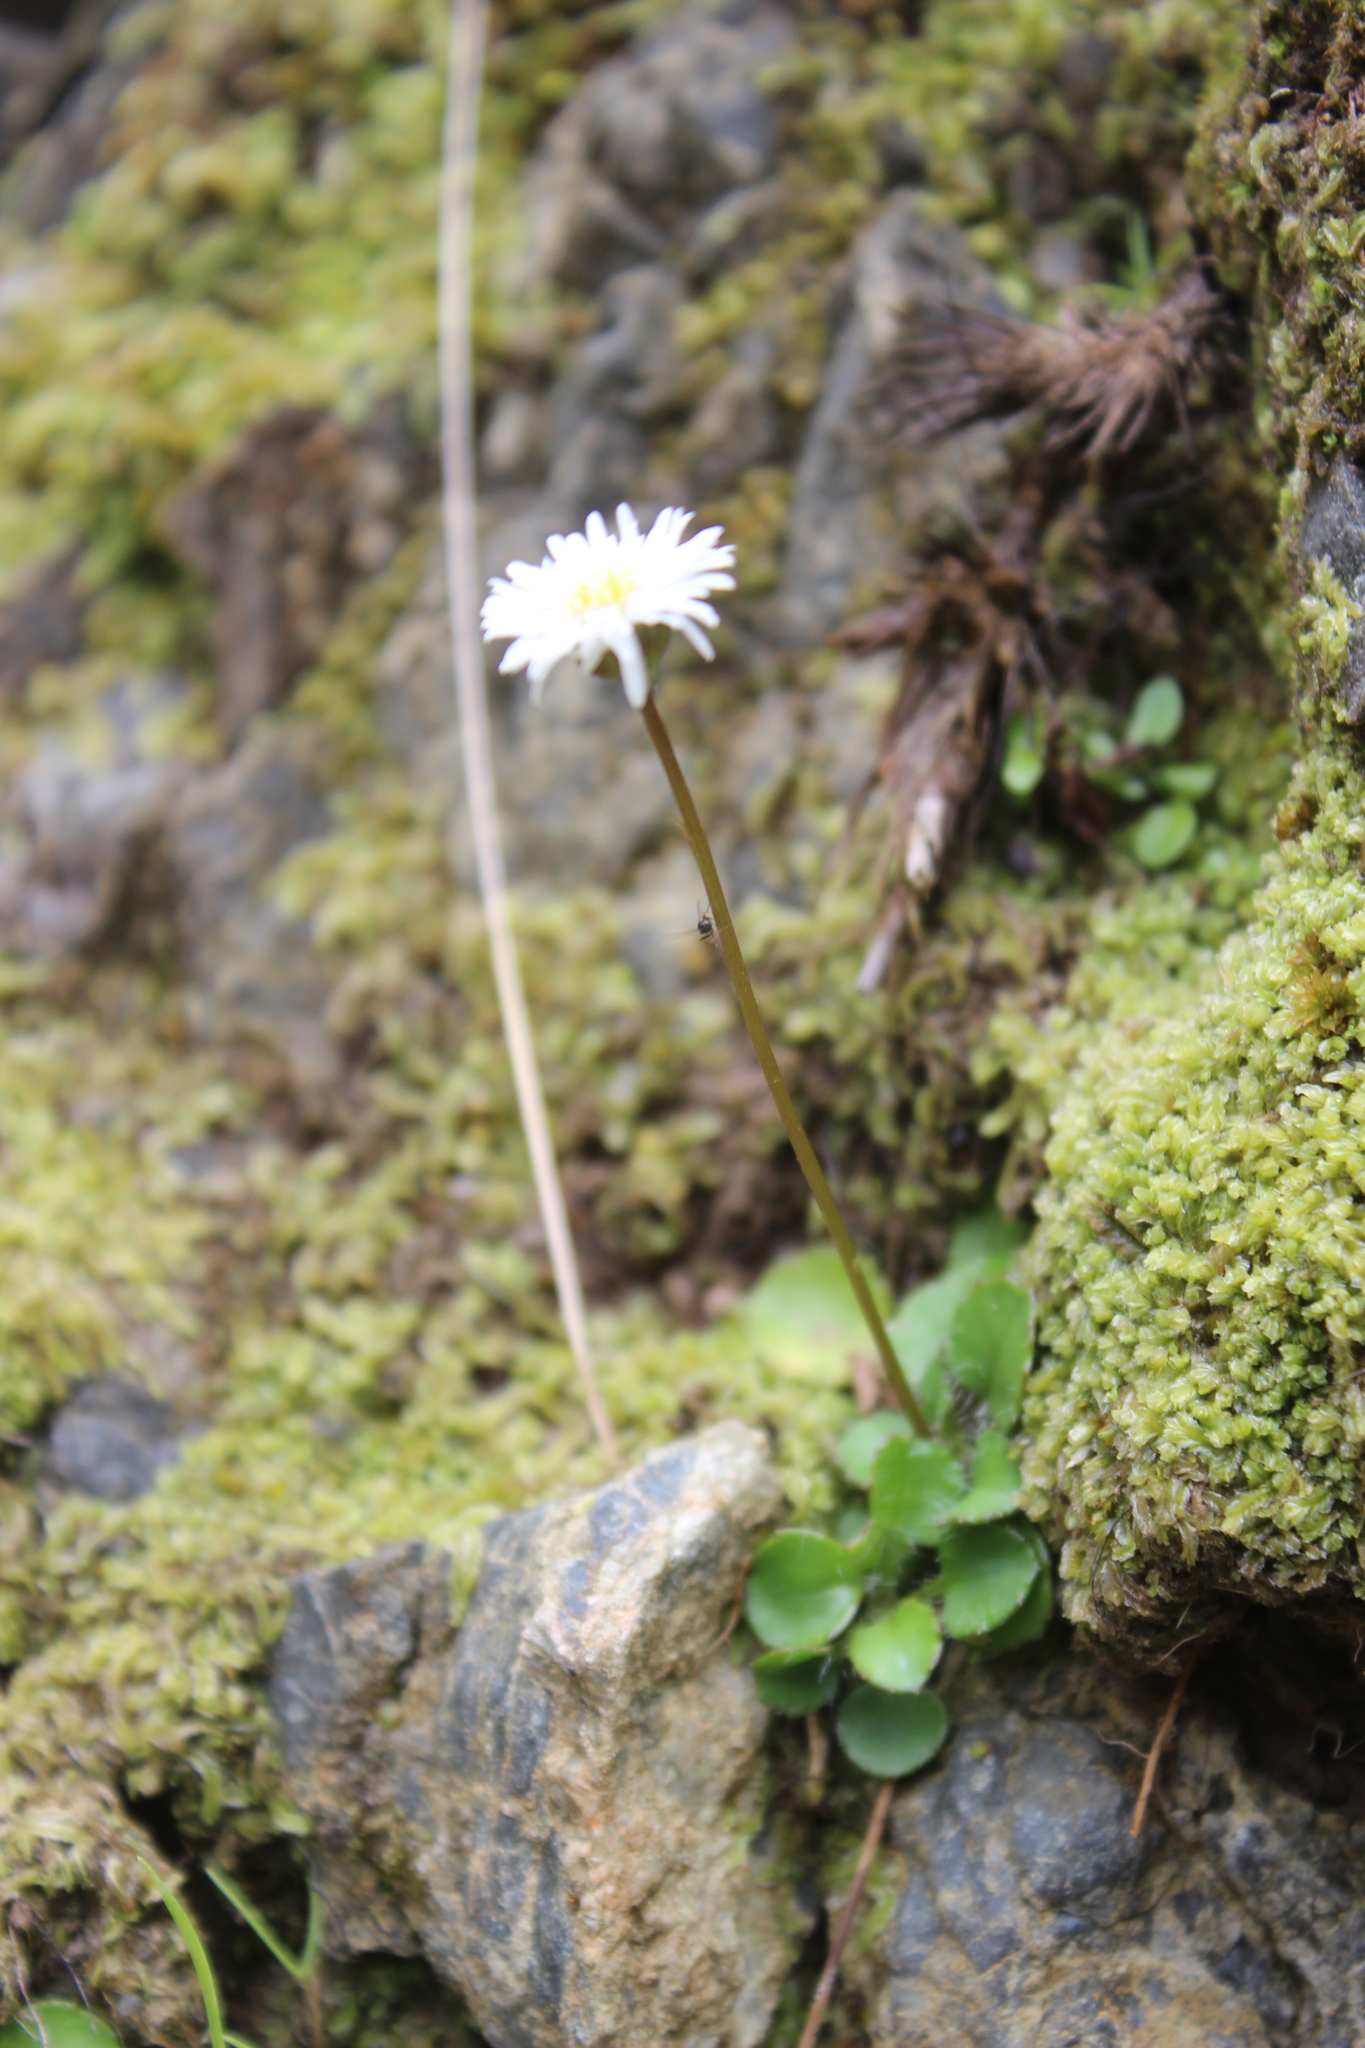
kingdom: Plantae
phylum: Tracheophyta
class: Magnoliopsida
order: Asterales
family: Asteraceae
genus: Lagenophora
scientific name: Lagenophora pumila
